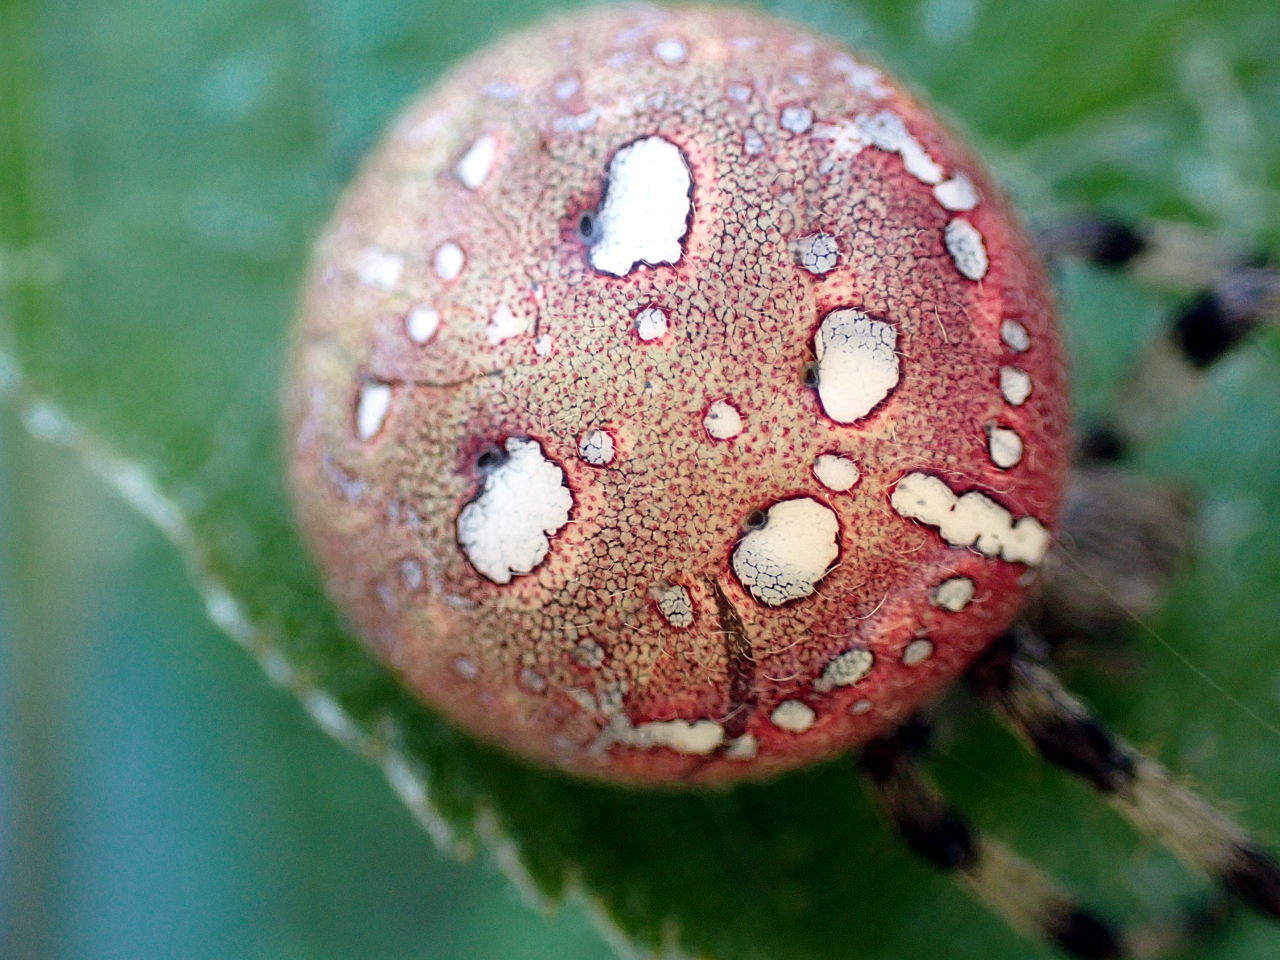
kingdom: Animalia
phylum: Arthropoda
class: Arachnida
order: Araneae
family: Araneidae
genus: Araneus
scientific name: Araneus quadratus
